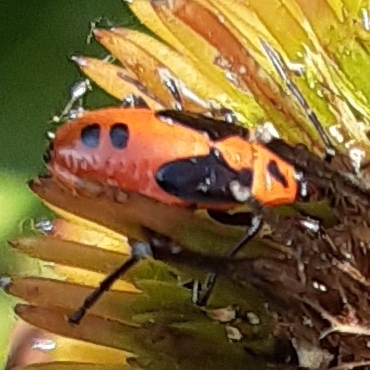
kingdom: Animalia
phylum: Arthropoda
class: Insecta
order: Hemiptera
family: Lygaeidae
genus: Lygaeus
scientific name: Lygaeus turcicus
